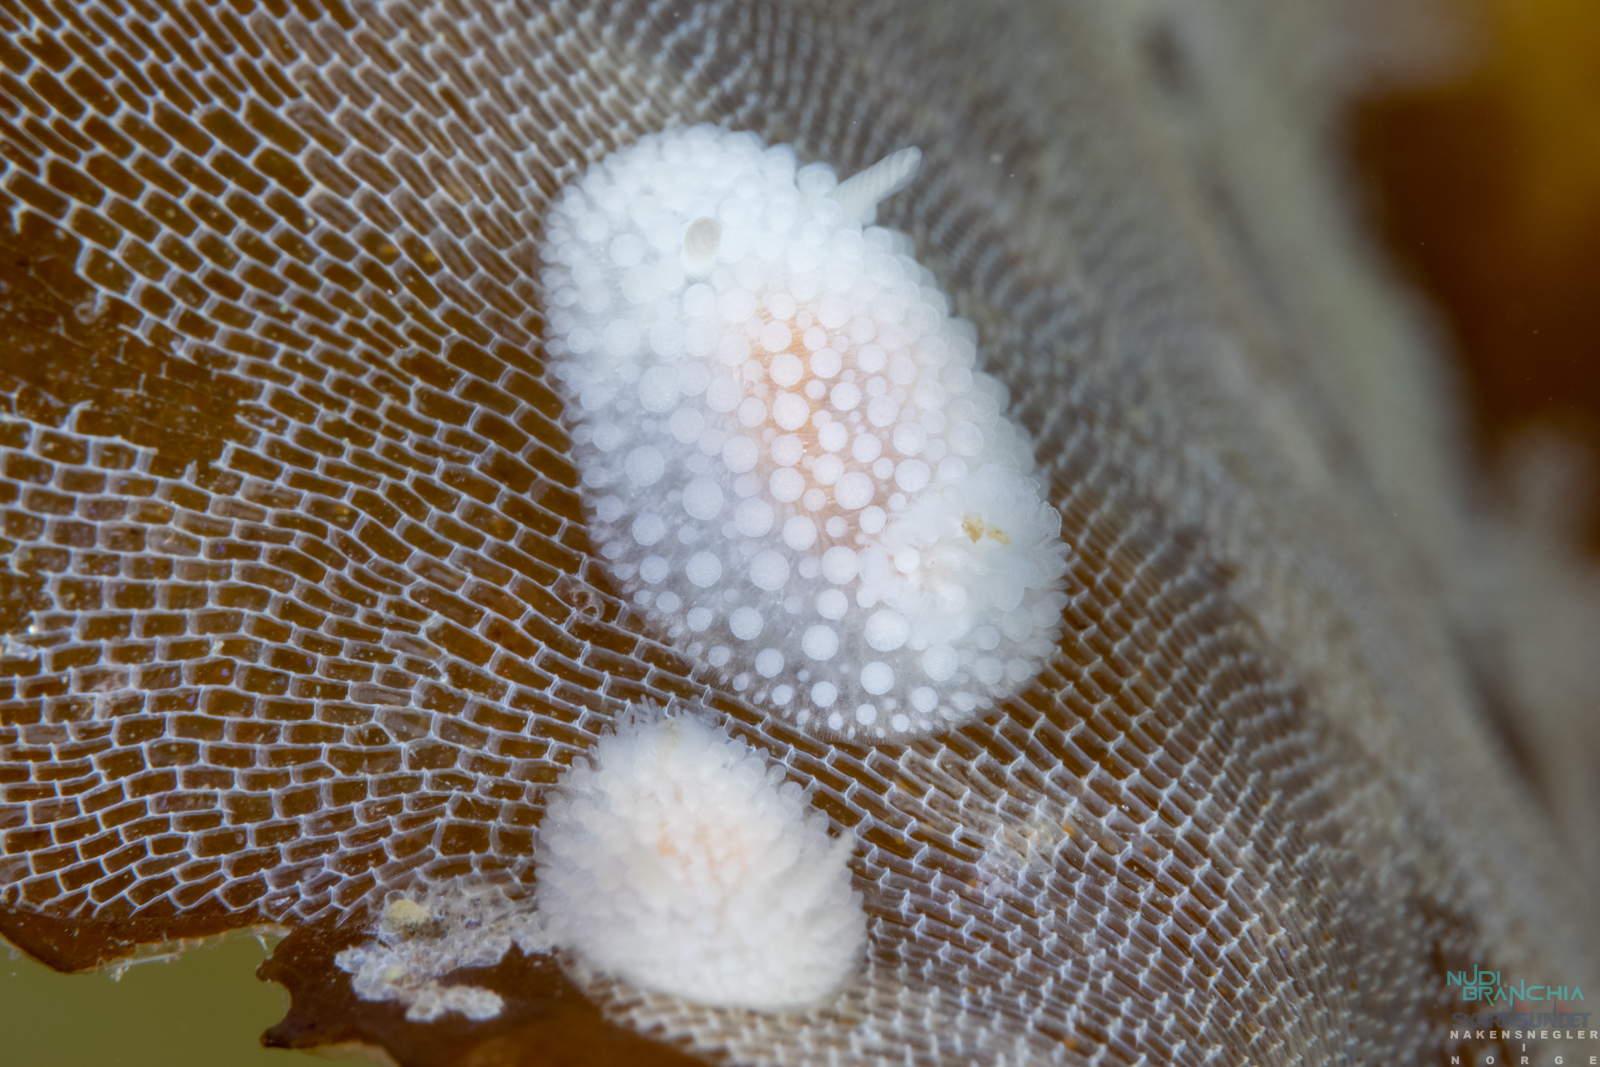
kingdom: Animalia
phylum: Mollusca
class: Gastropoda
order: Nudibranchia
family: Onchidorididae
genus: Onchidoris
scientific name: Onchidoris muricata
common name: Rough doris
